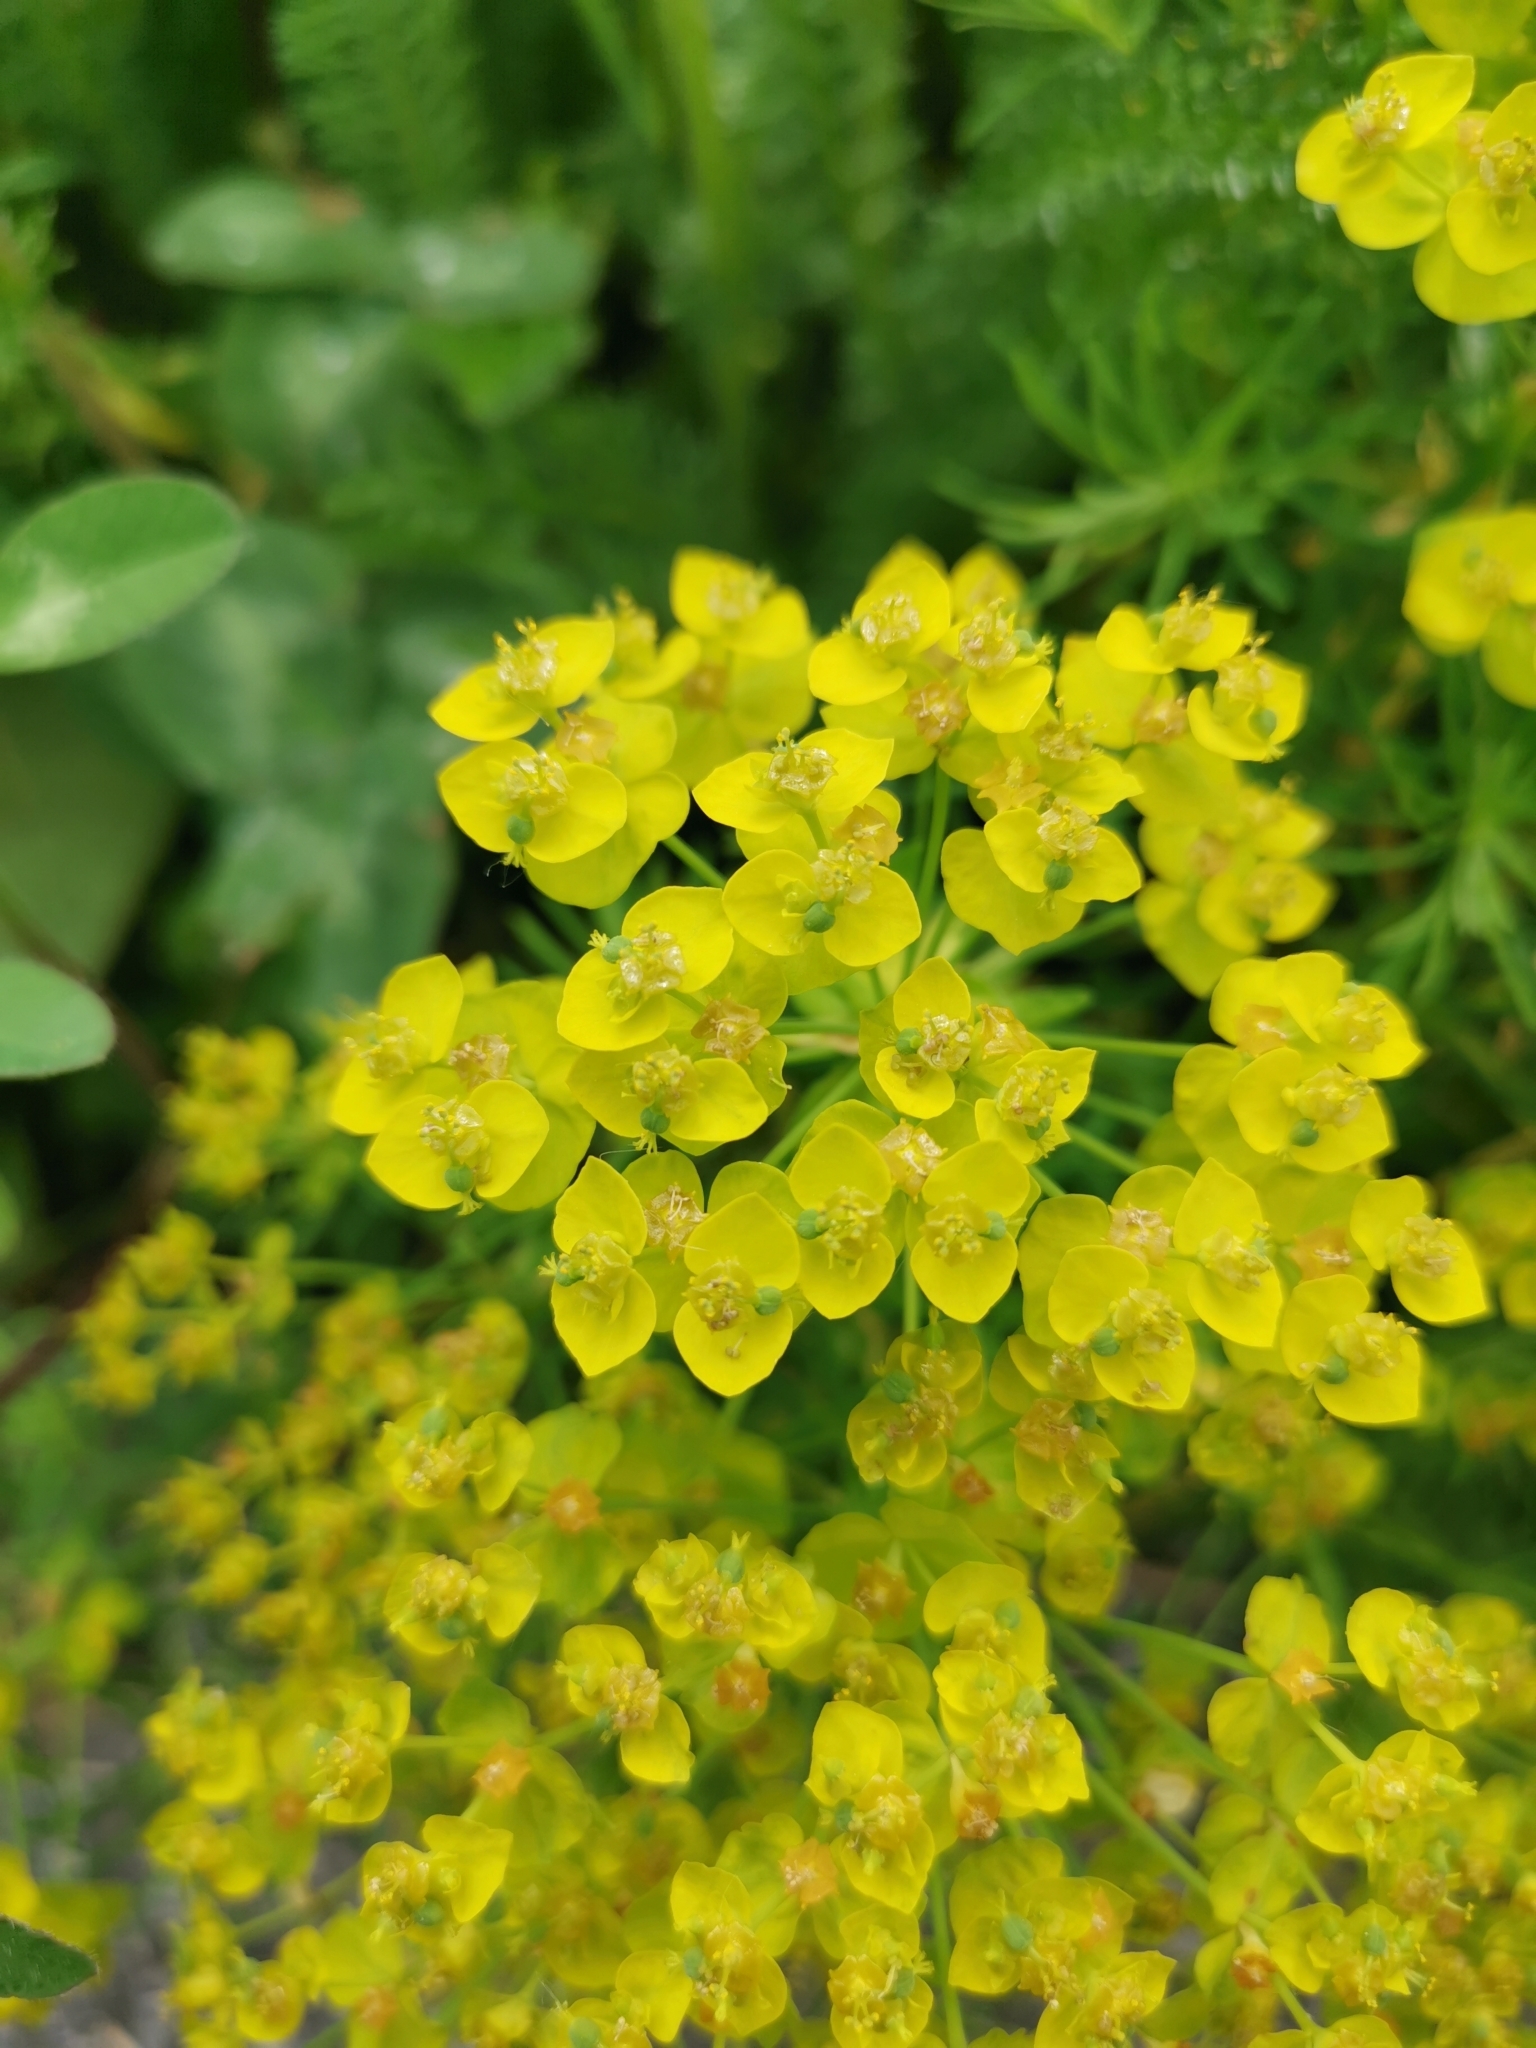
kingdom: Plantae
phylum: Tracheophyta
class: Magnoliopsida
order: Malpighiales
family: Euphorbiaceae
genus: Euphorbia
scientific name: Euphorbia cyparissias
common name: Cypress spurge
